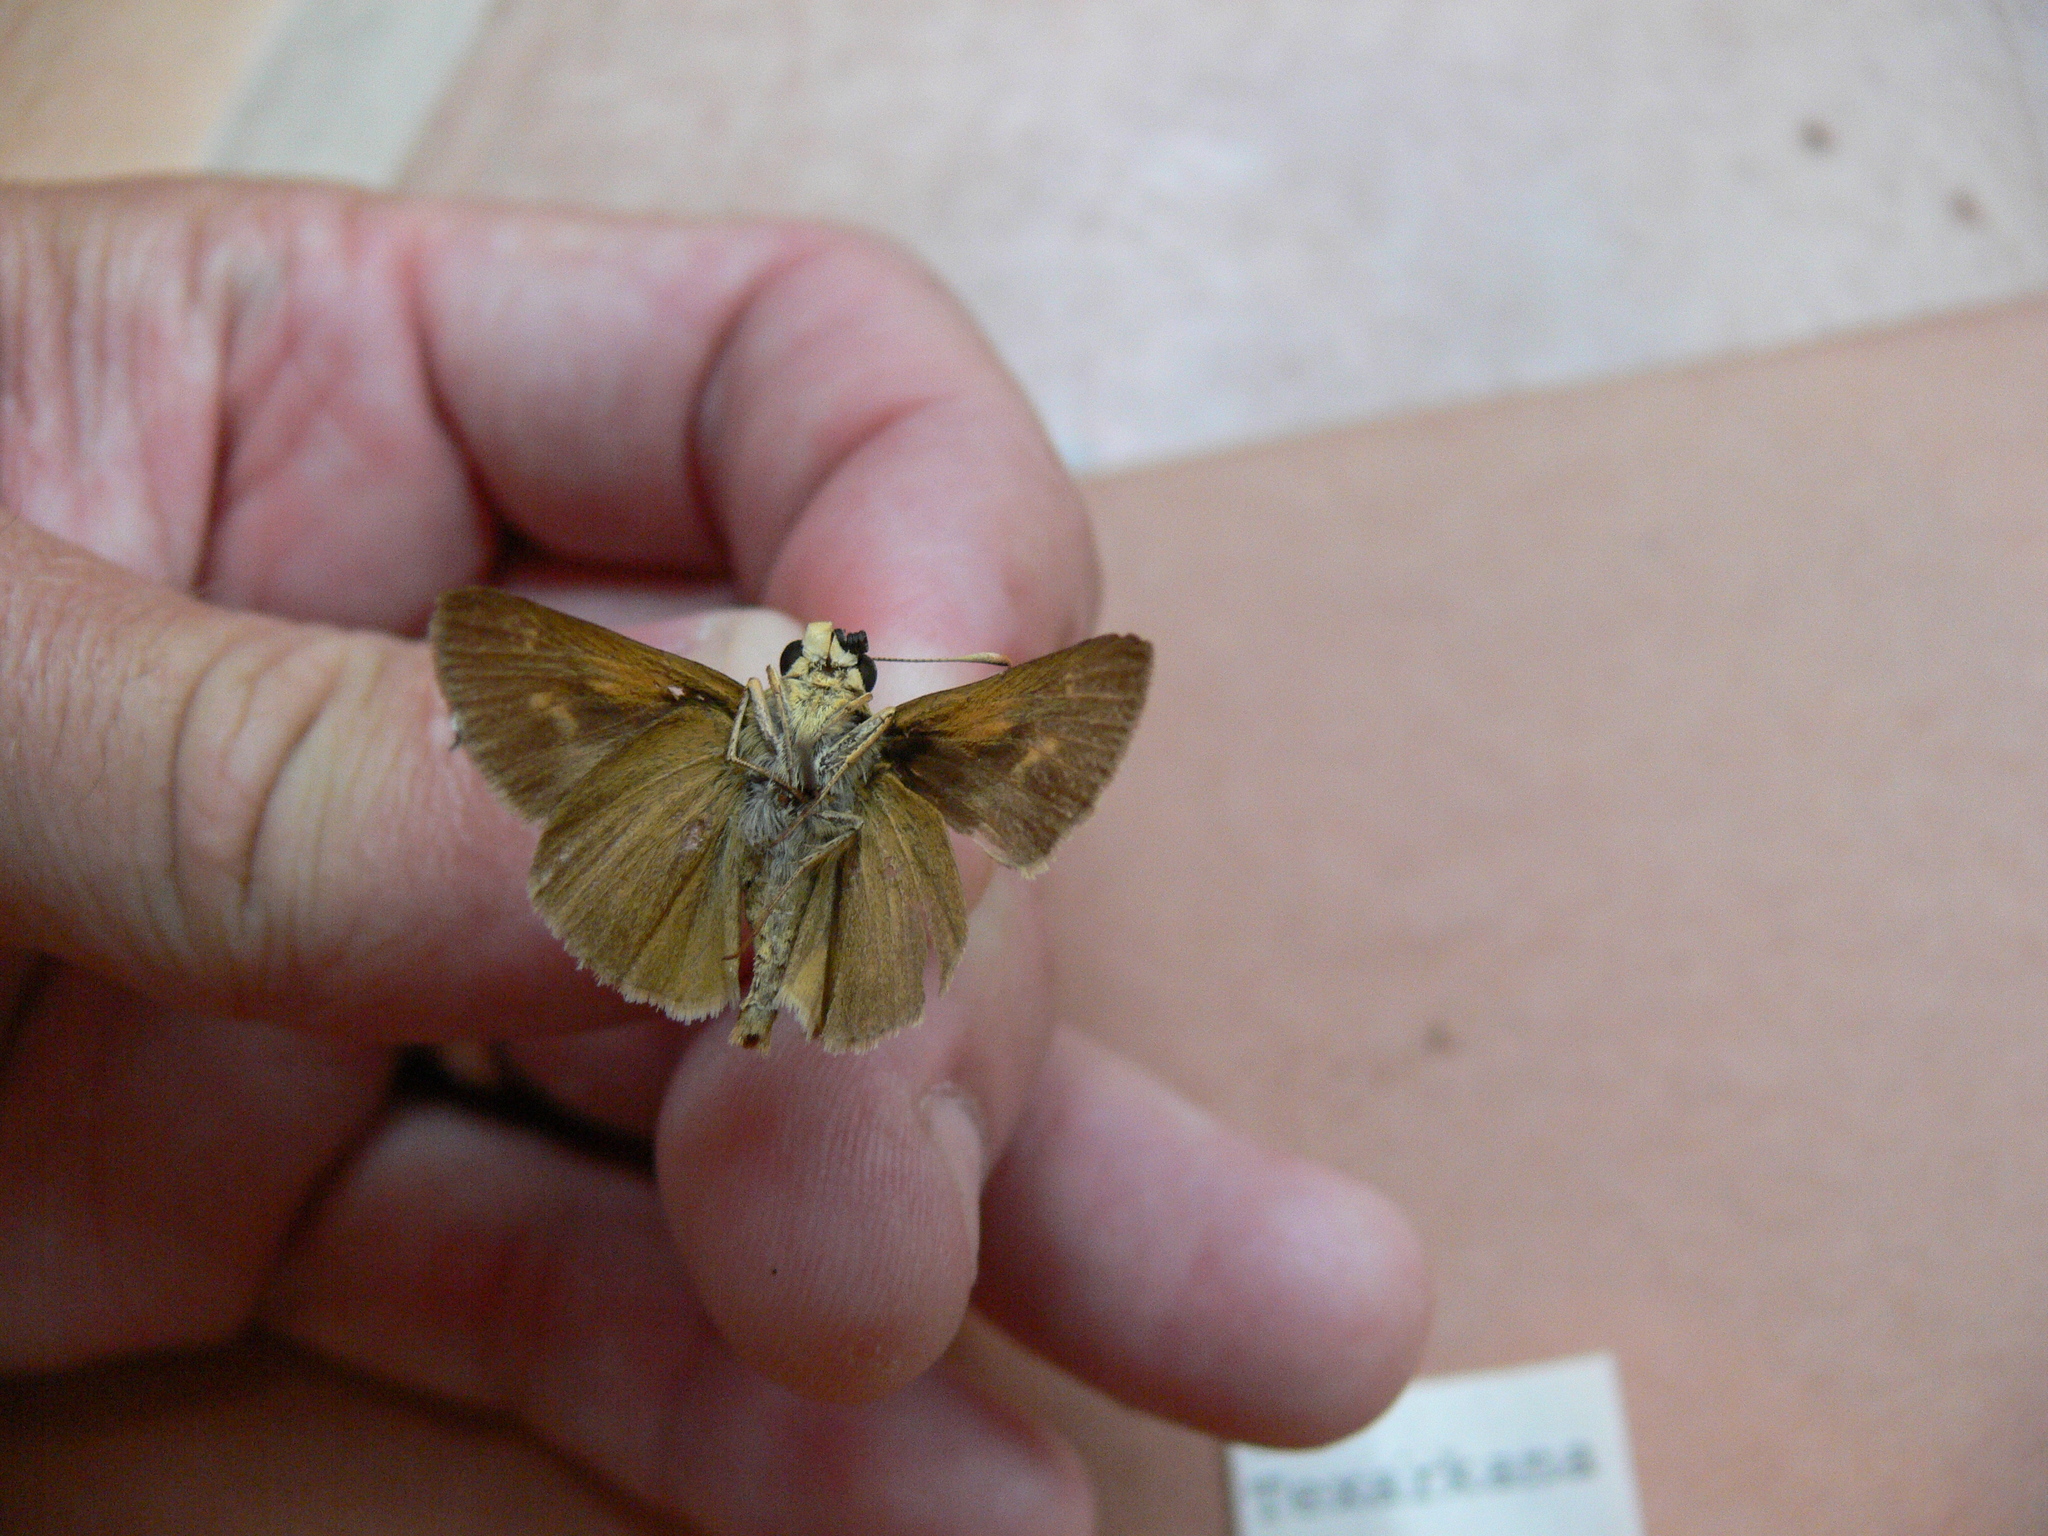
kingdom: Animalia
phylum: Arthropoda
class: Insecta
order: Lepidoptera
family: Hesperiidae
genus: Polites
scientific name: Polites themistocles
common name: Tawny-edged skipper
